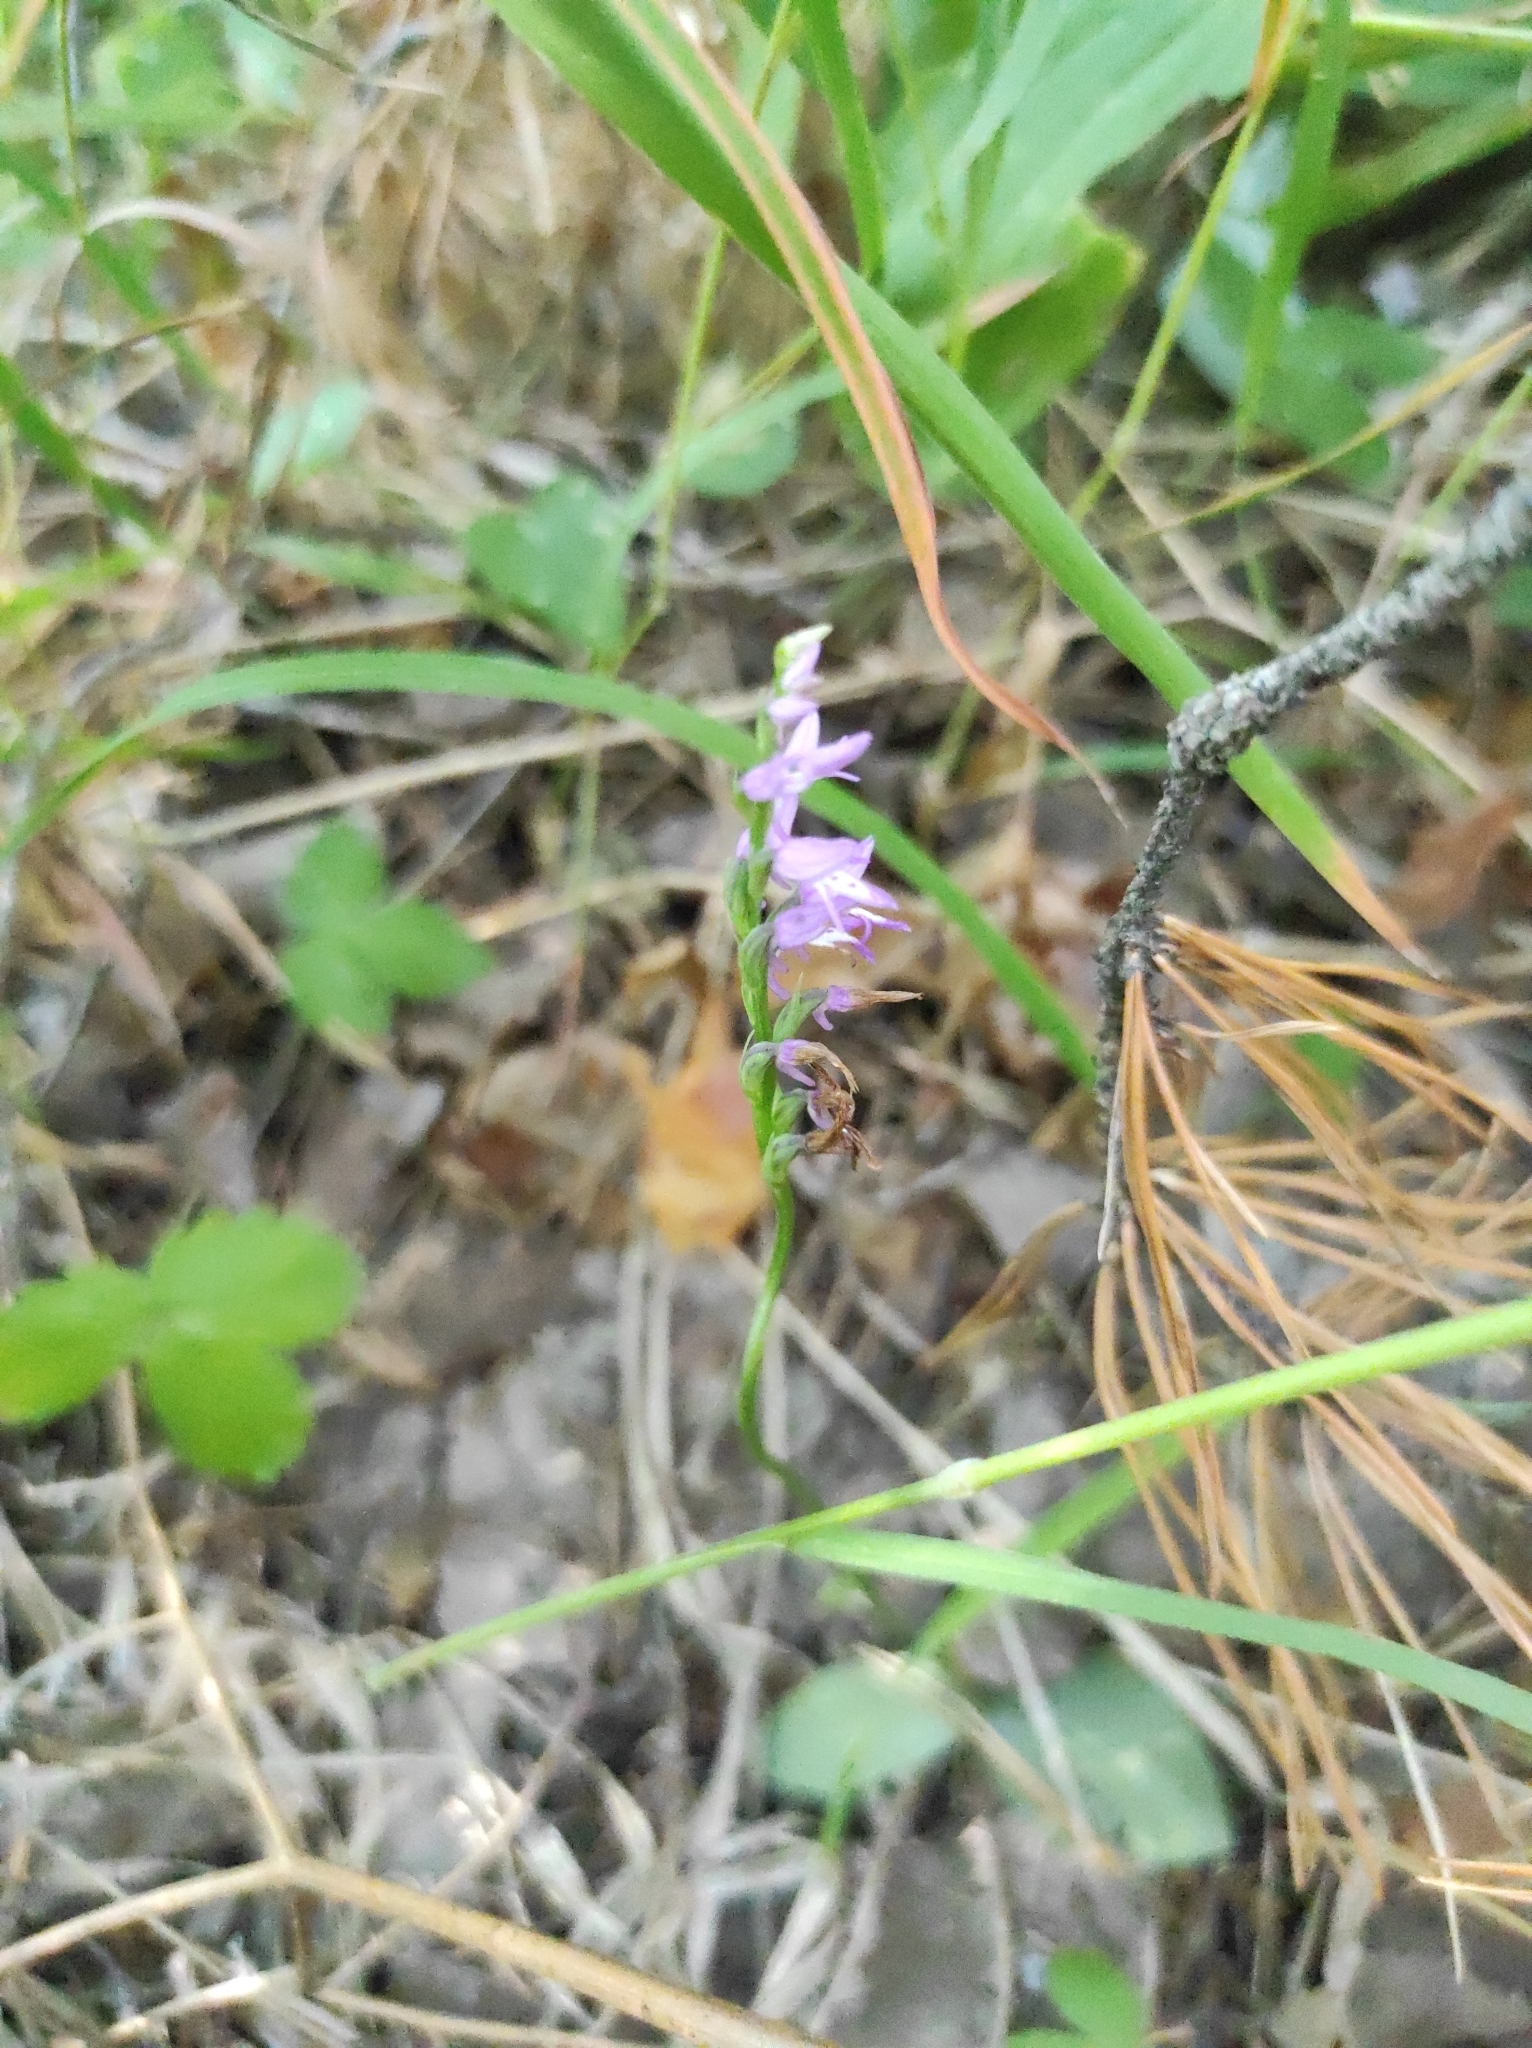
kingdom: Plantae
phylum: Tracheophyta
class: Liliopsida
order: Asparagales
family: Orchidaceae
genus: Hemipilia
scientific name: Hemipilia cucullata
